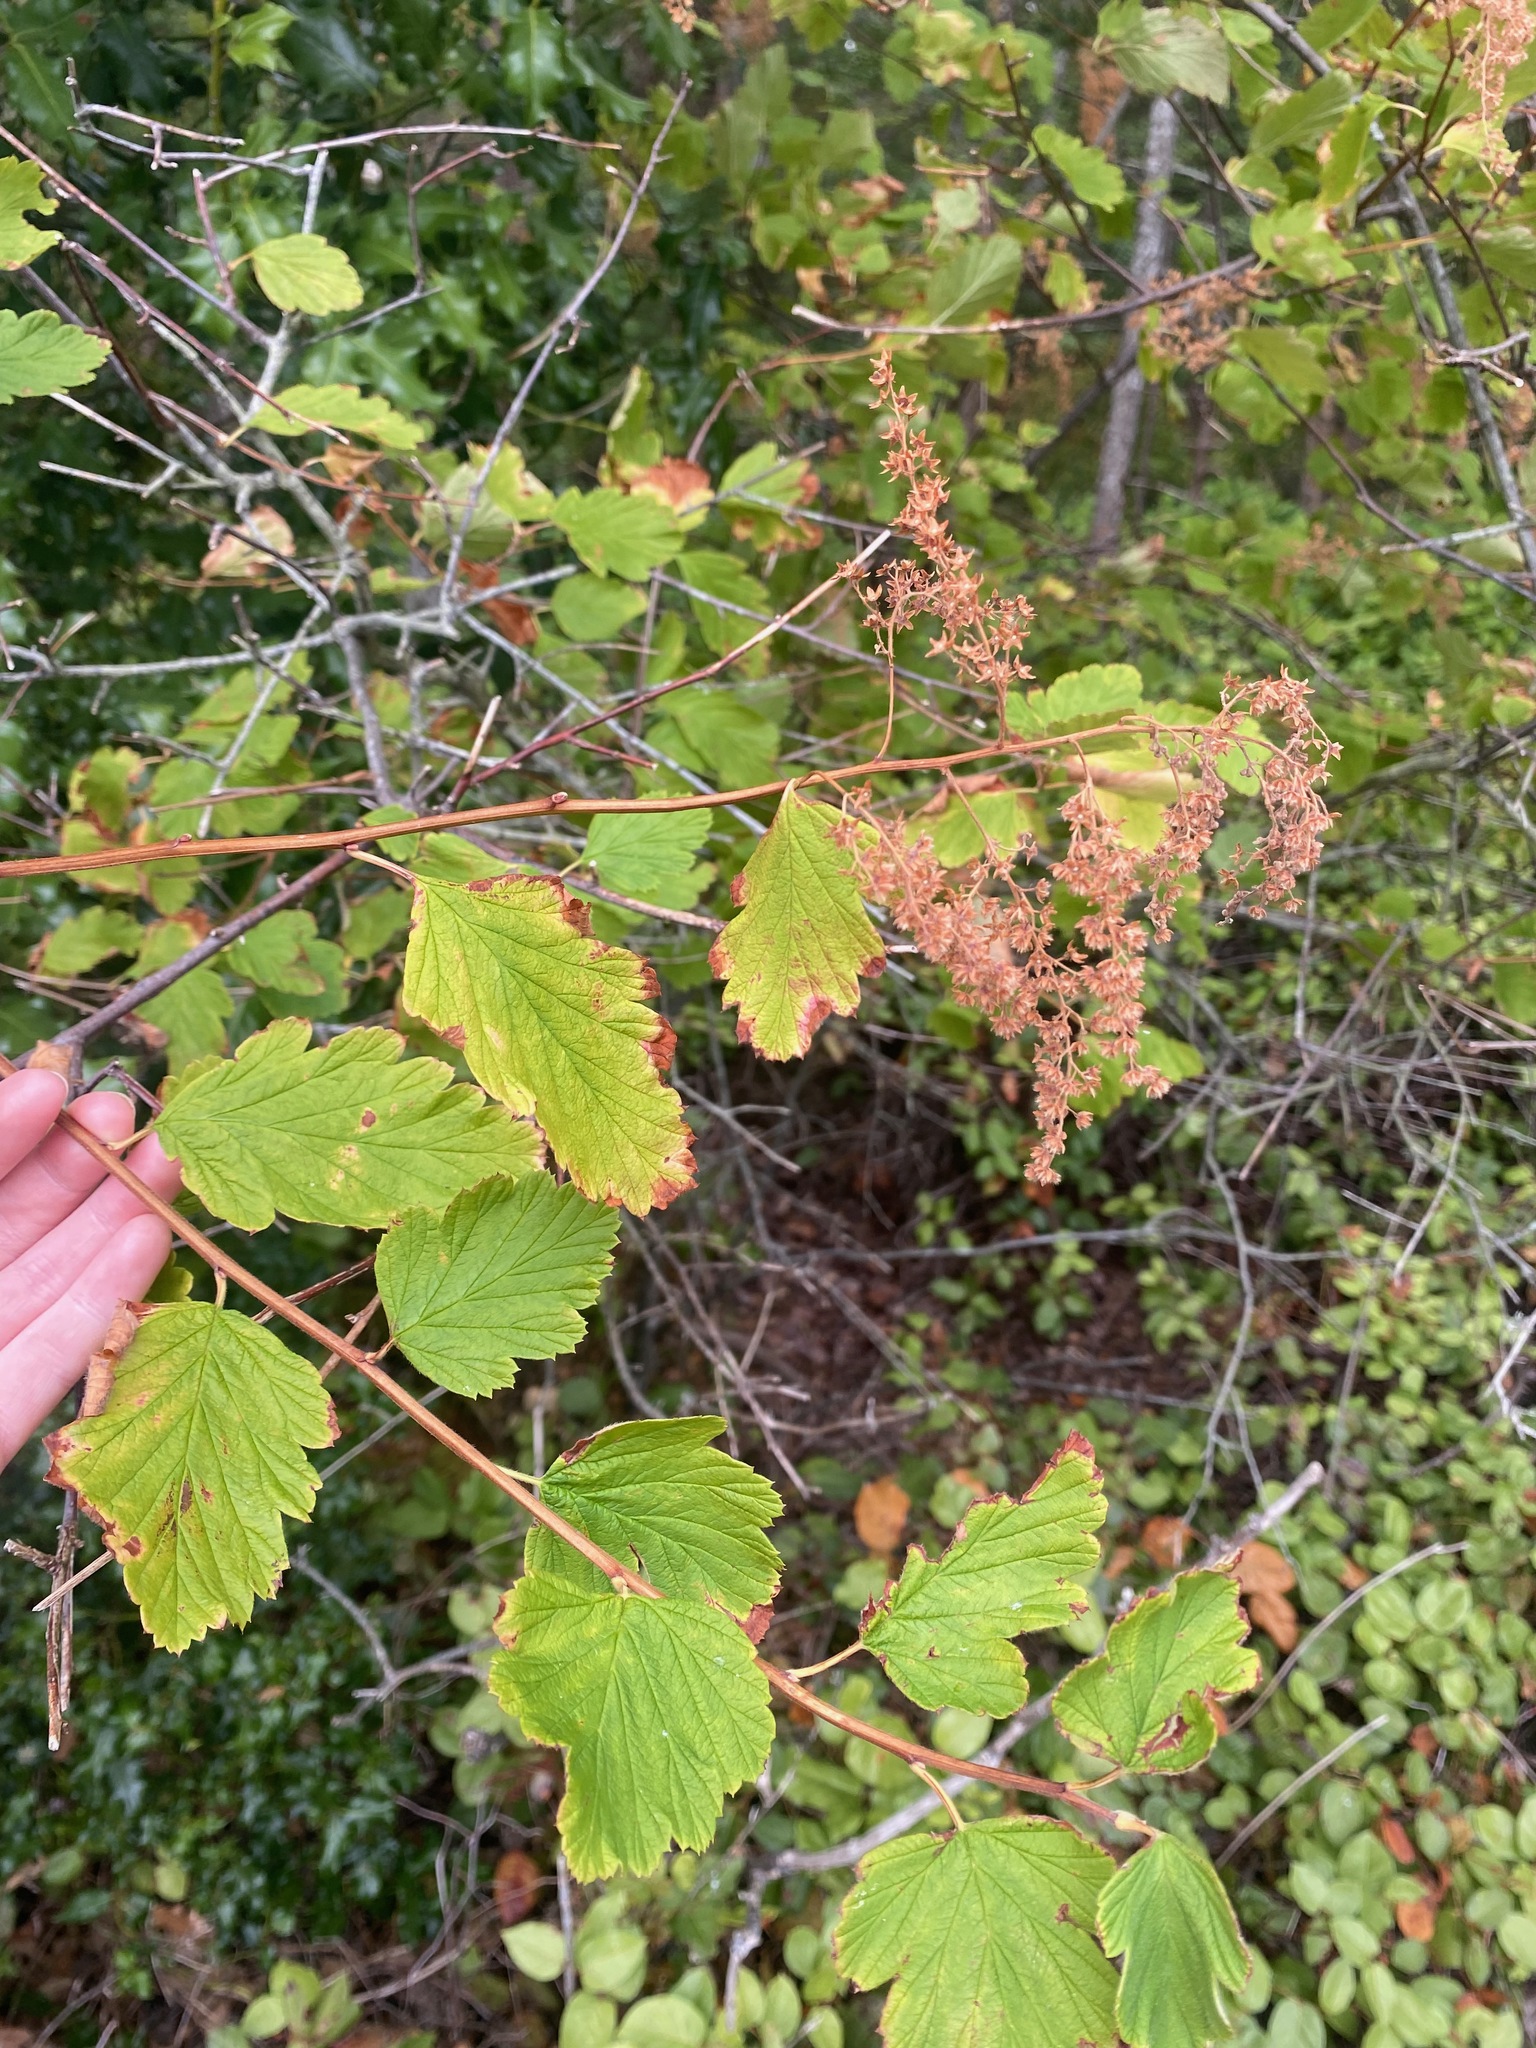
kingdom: Plantae
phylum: Tracheophyta
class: Magnoliopsida
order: Rosales
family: Rosaceae
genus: Holodiscus
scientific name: Holodiscus discolor
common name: Oceanspray
